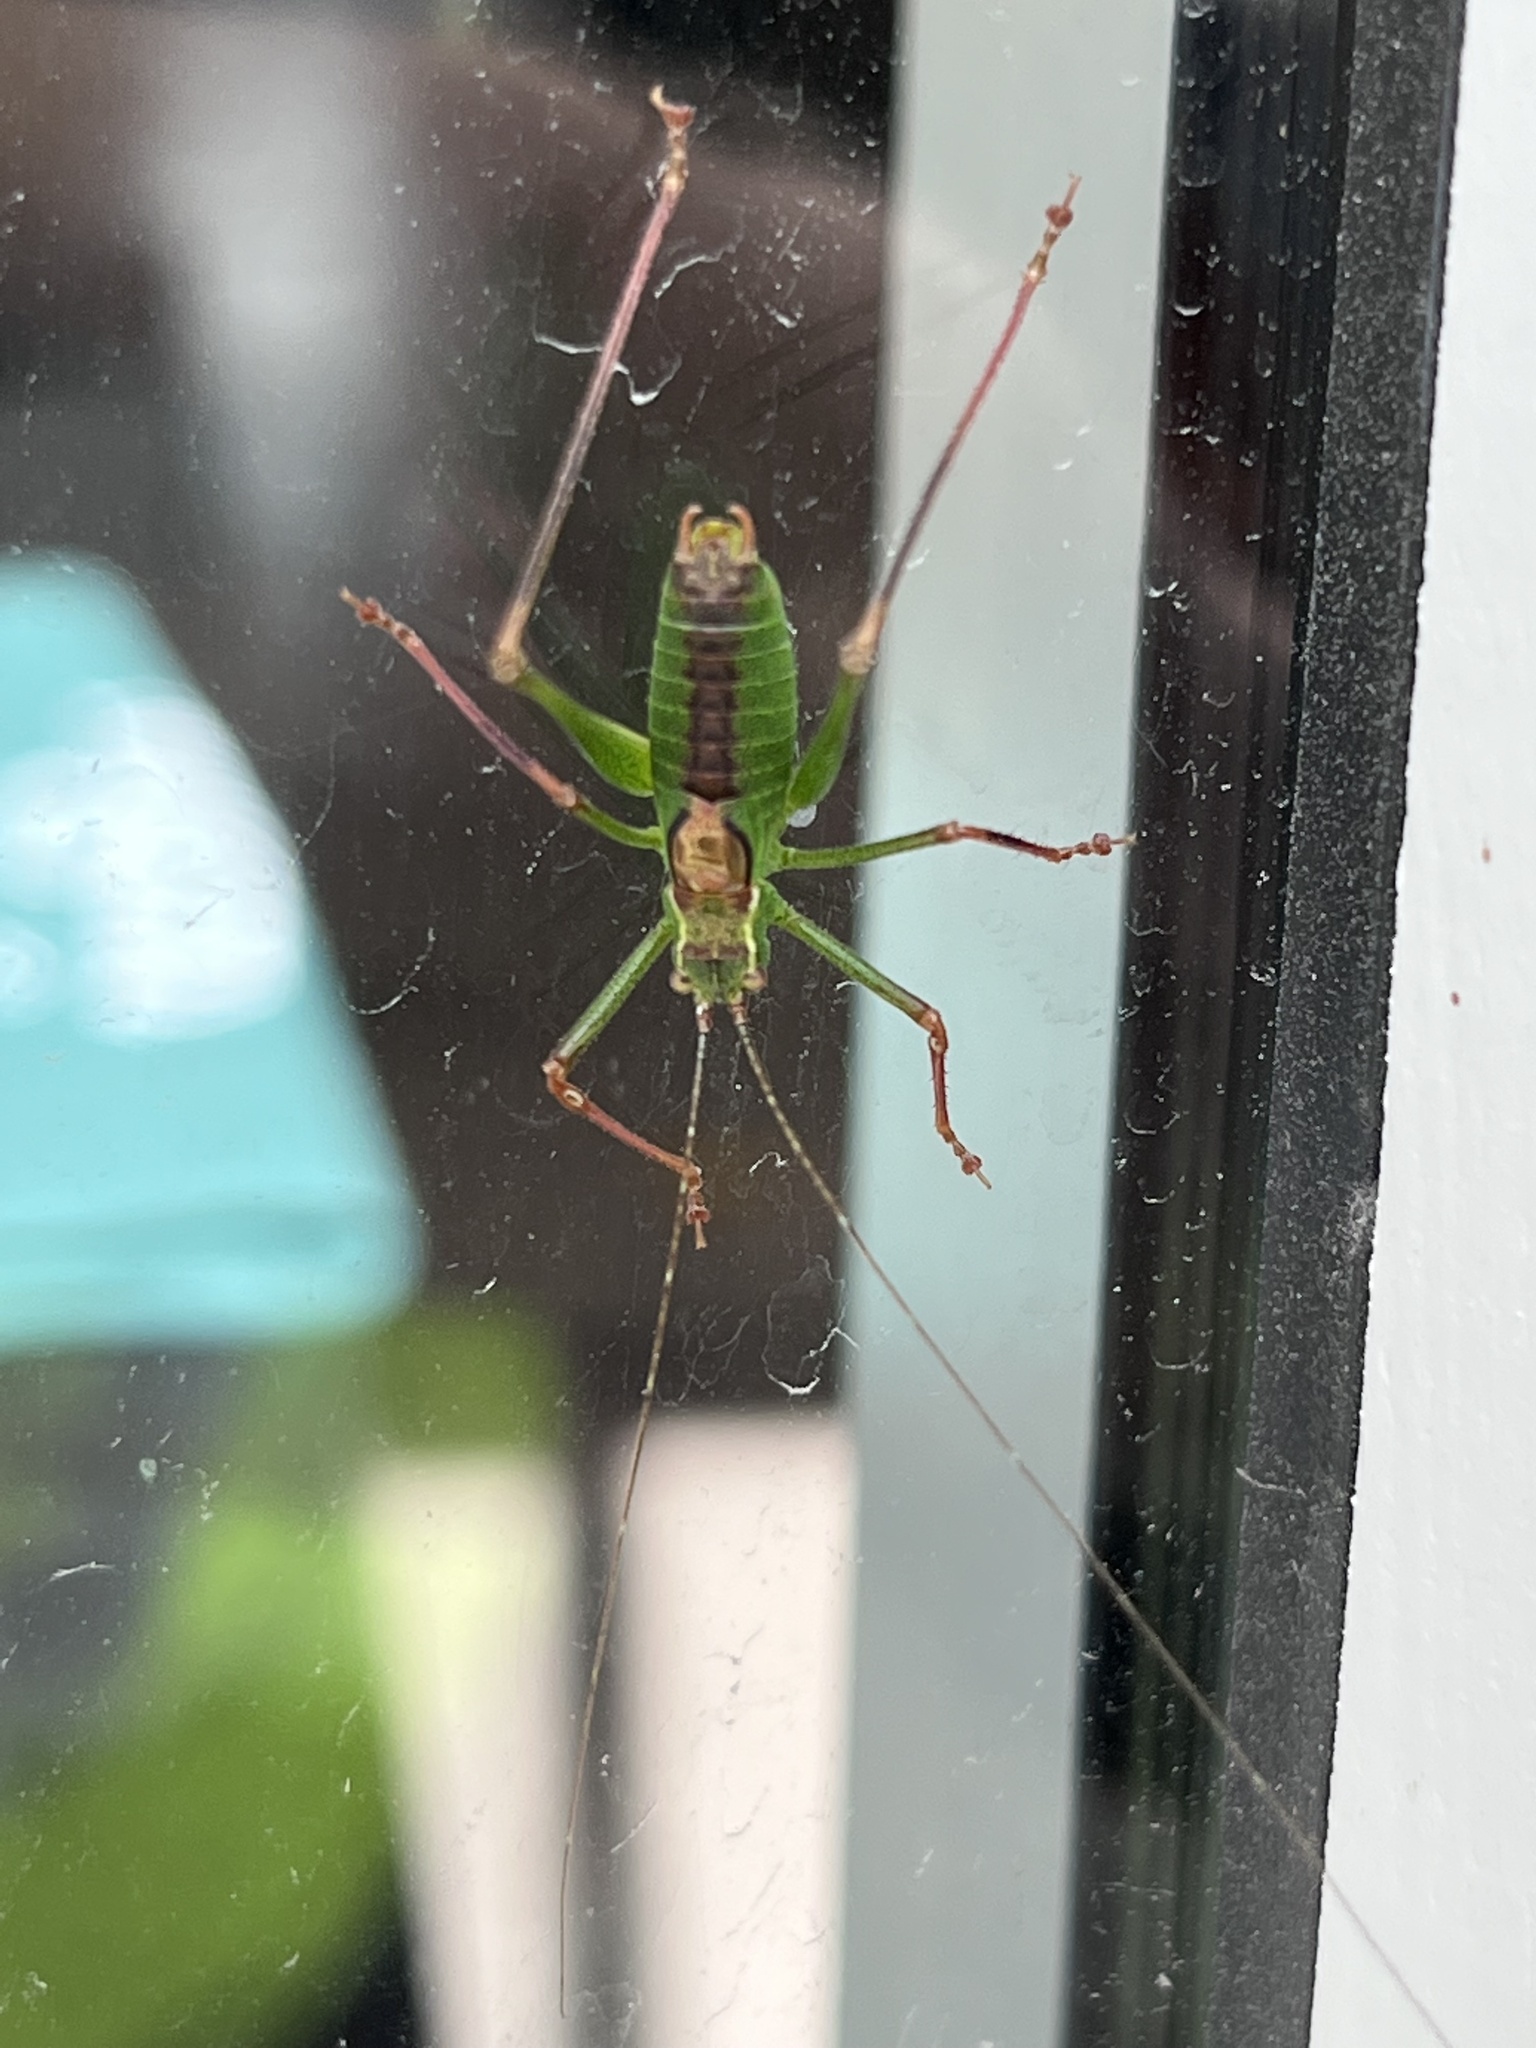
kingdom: Animalia
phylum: Arthropoda
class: Insecta
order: Orthoptera
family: Tettigoniidae
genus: Leptophyes
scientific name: Leptophyes punctatissima
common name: Speckled bush-cricket
